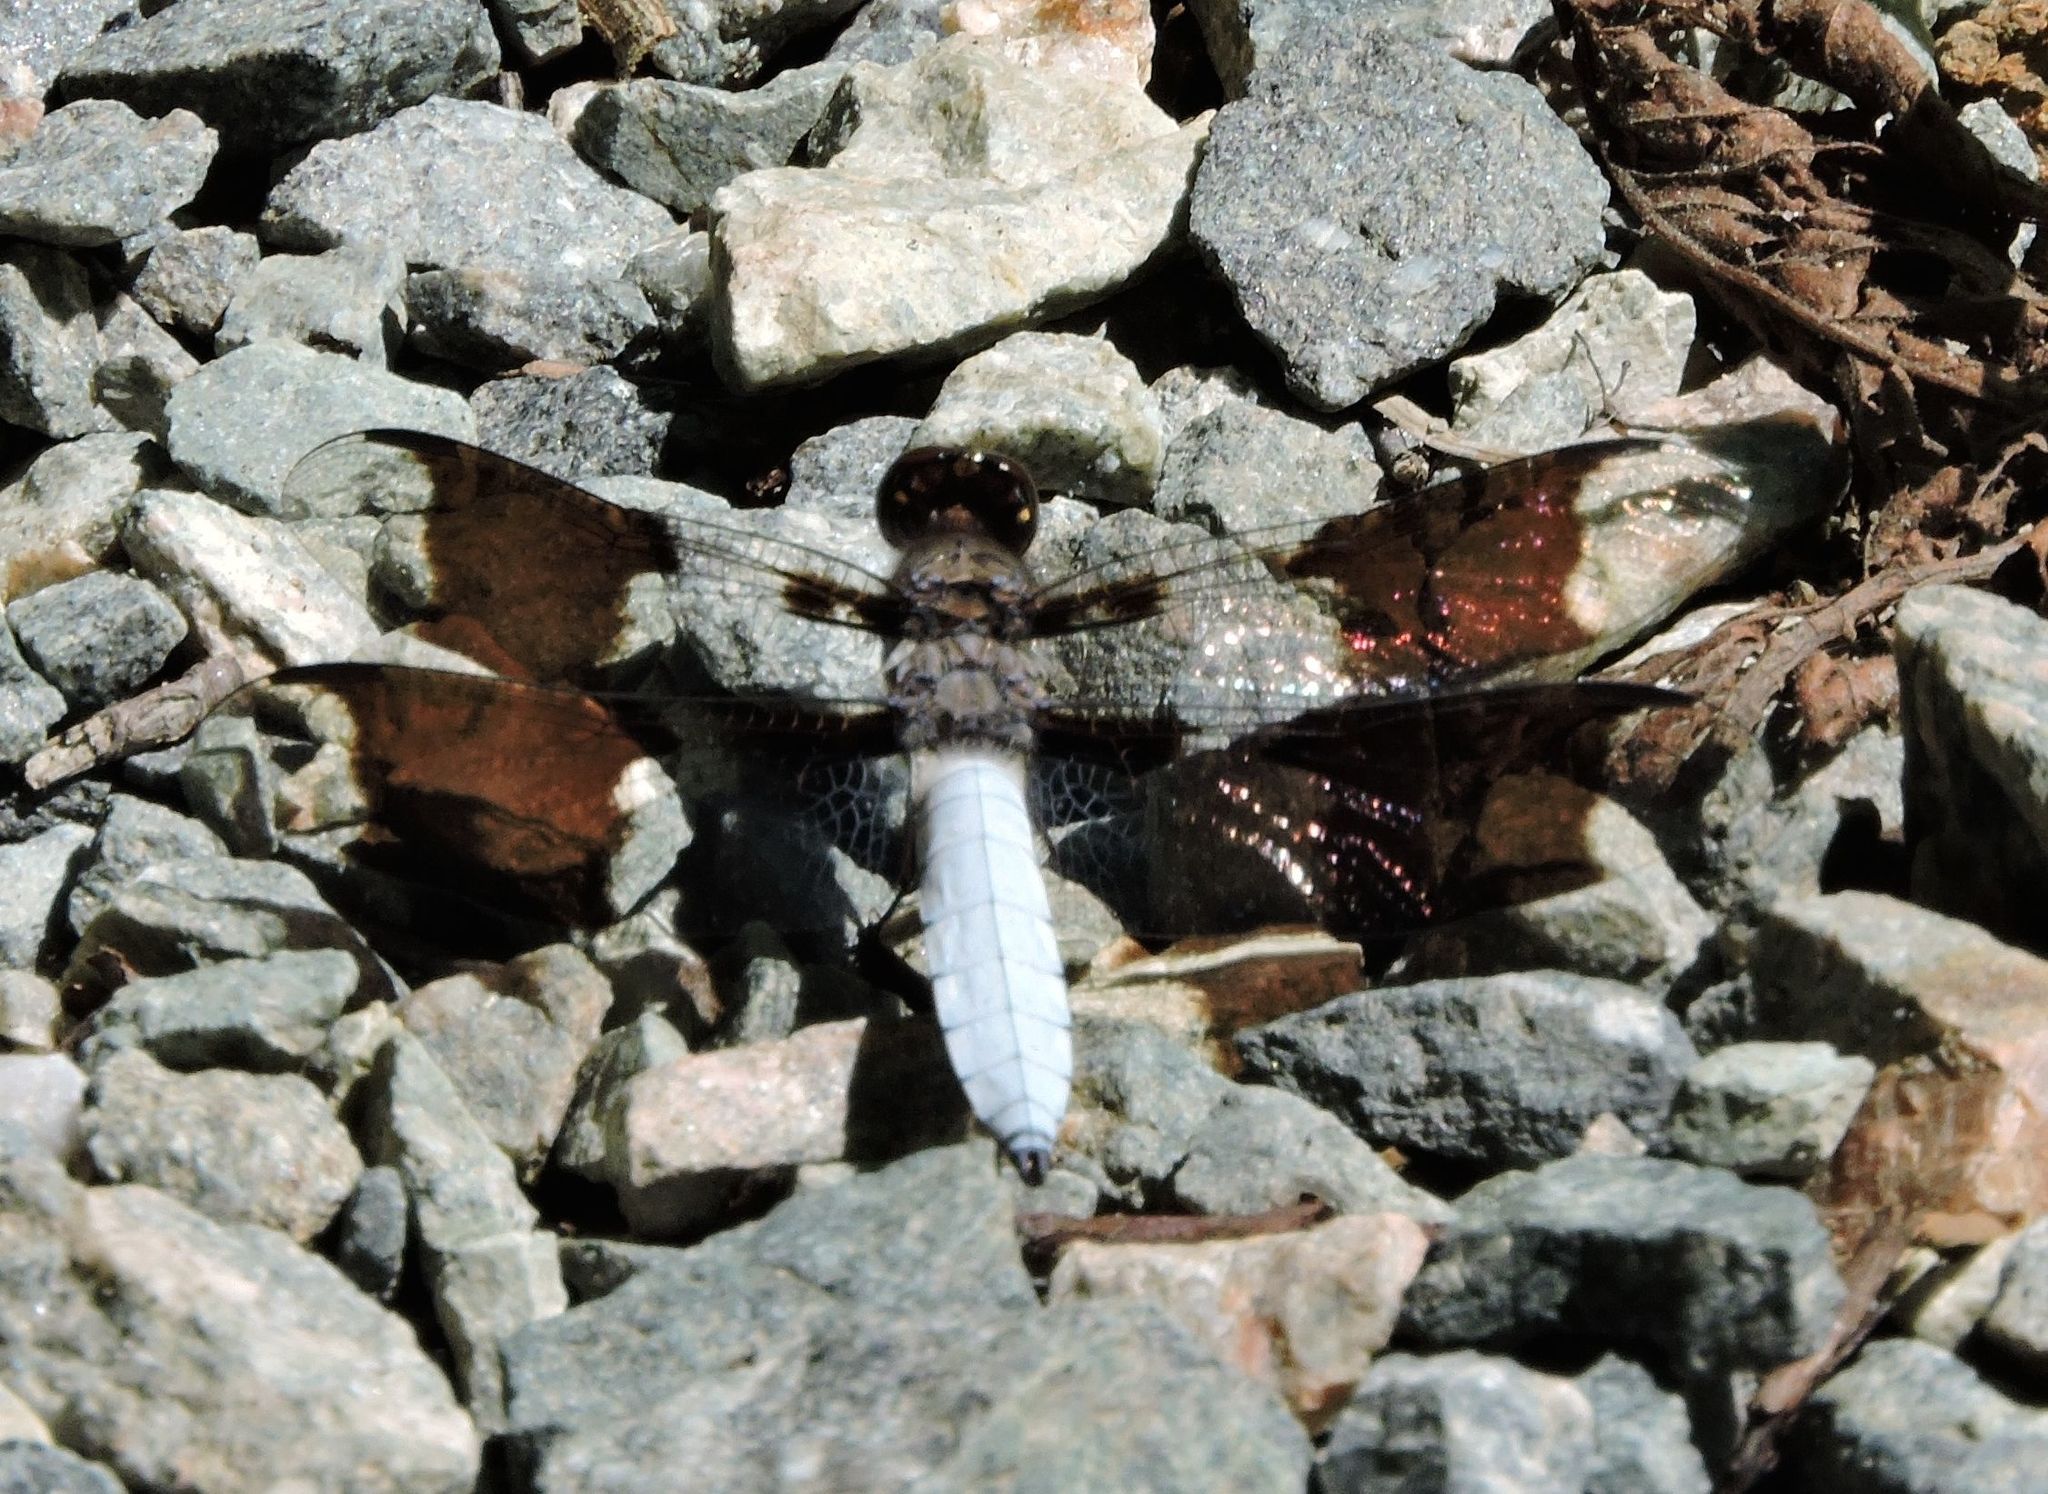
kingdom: Animalia
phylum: Arthropoda
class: Insecta
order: Odonata
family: Libellulidae
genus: Plathemis
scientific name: Plathemis lydia
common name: Common whitetail
